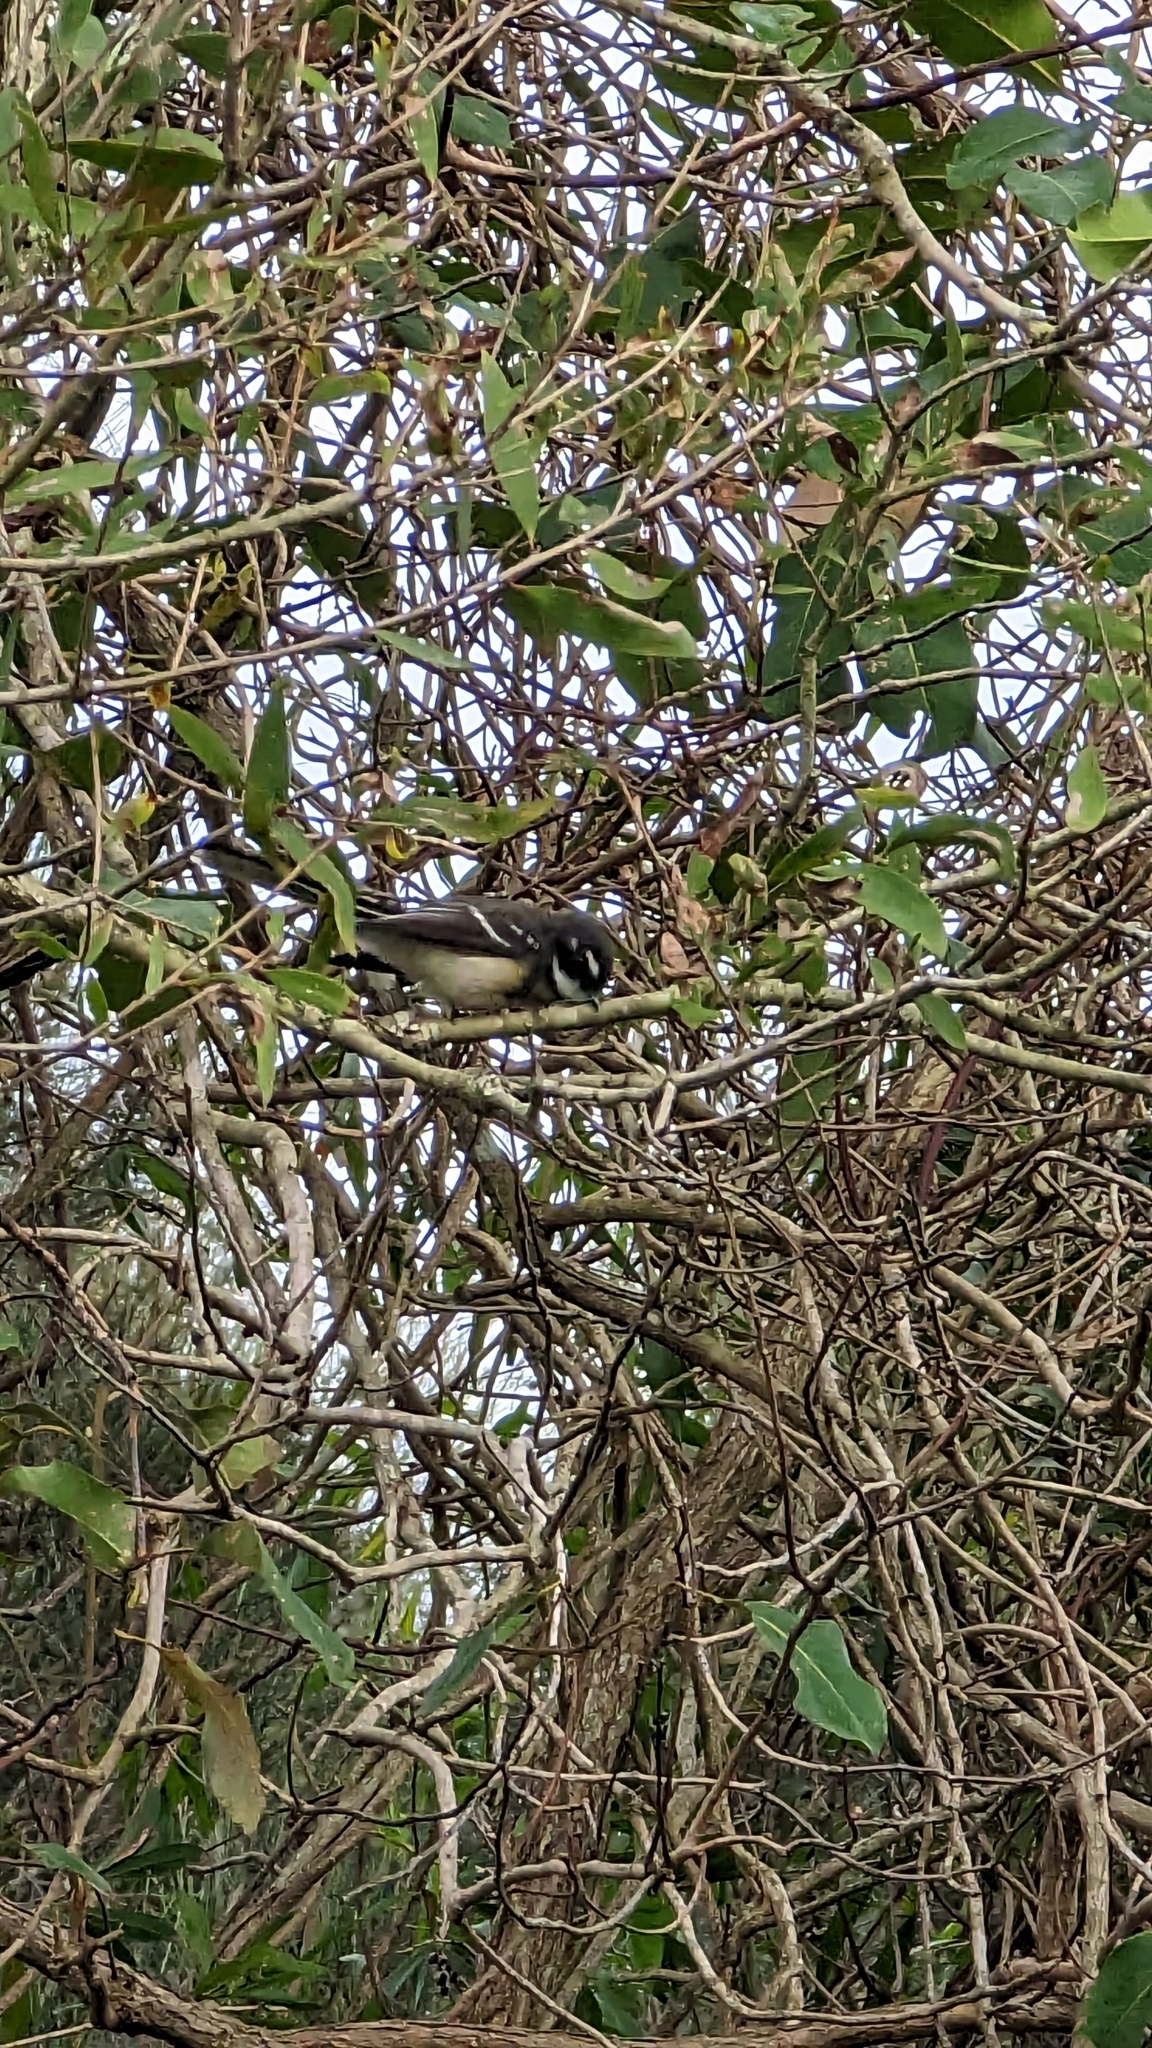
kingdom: Animalia
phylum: Chordata
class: Aves
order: Passeriformes
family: Rhipiduridae
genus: Rhipidura
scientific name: Rhipidura albiscapa
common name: Grey fantail
